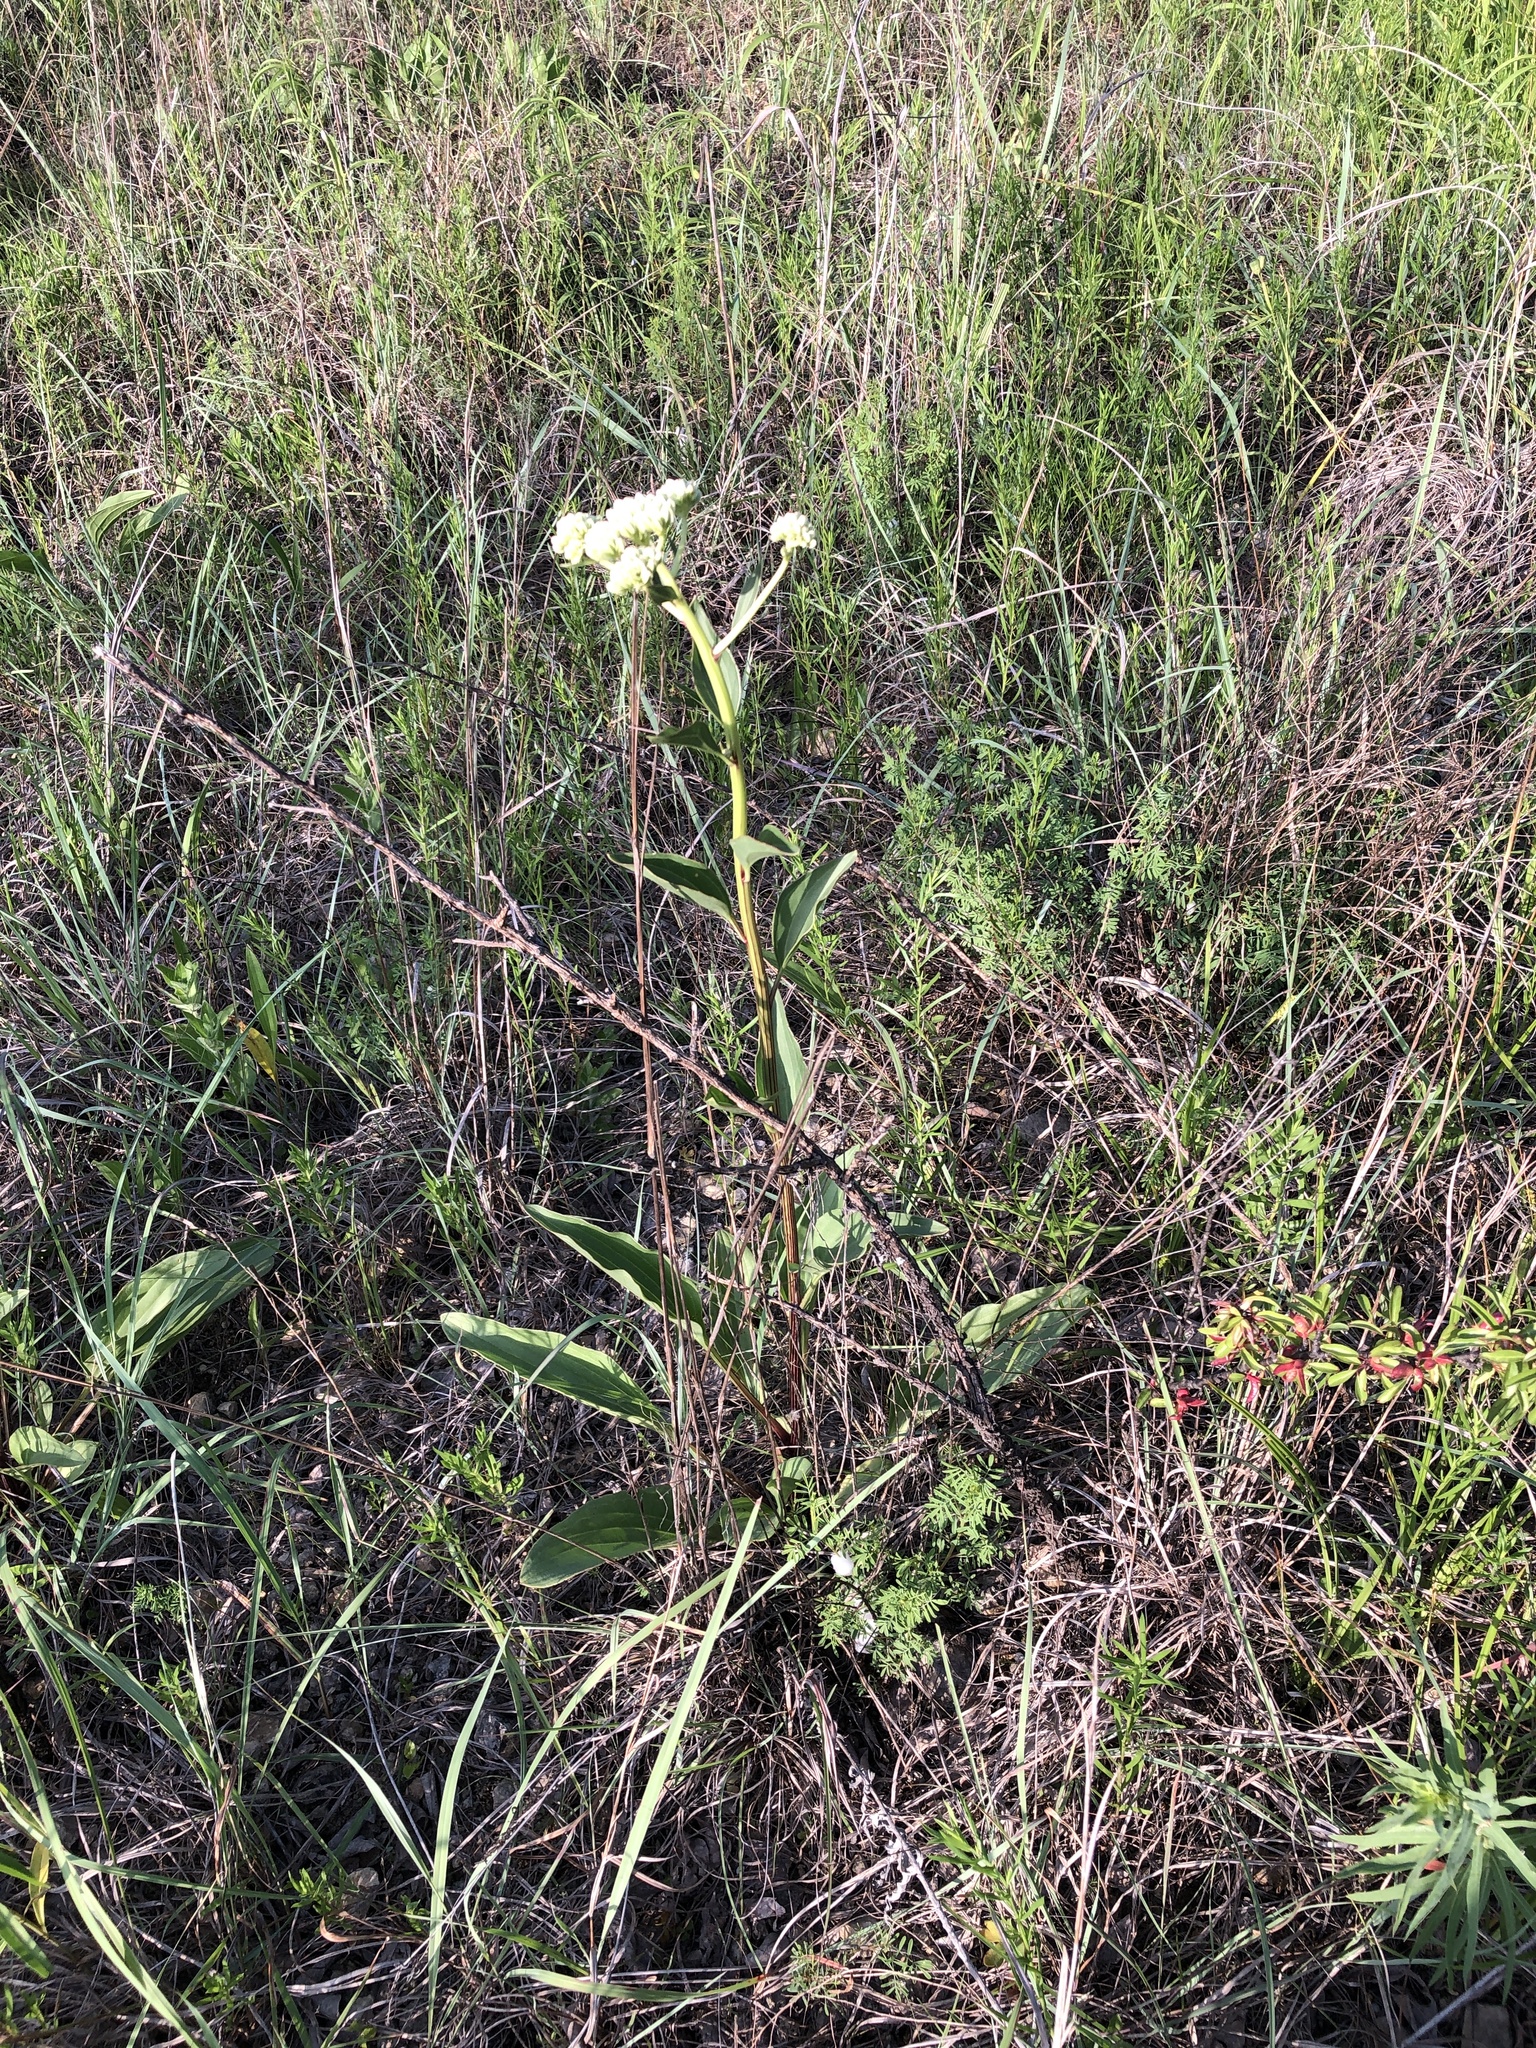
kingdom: Plantae
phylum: Tracheophyta
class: Magnoliopsida
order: Asterales
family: Asteraceae
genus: Arnoglossum
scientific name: Arnoglossum plantagineum
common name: Groove-stemmed indian-plantain
